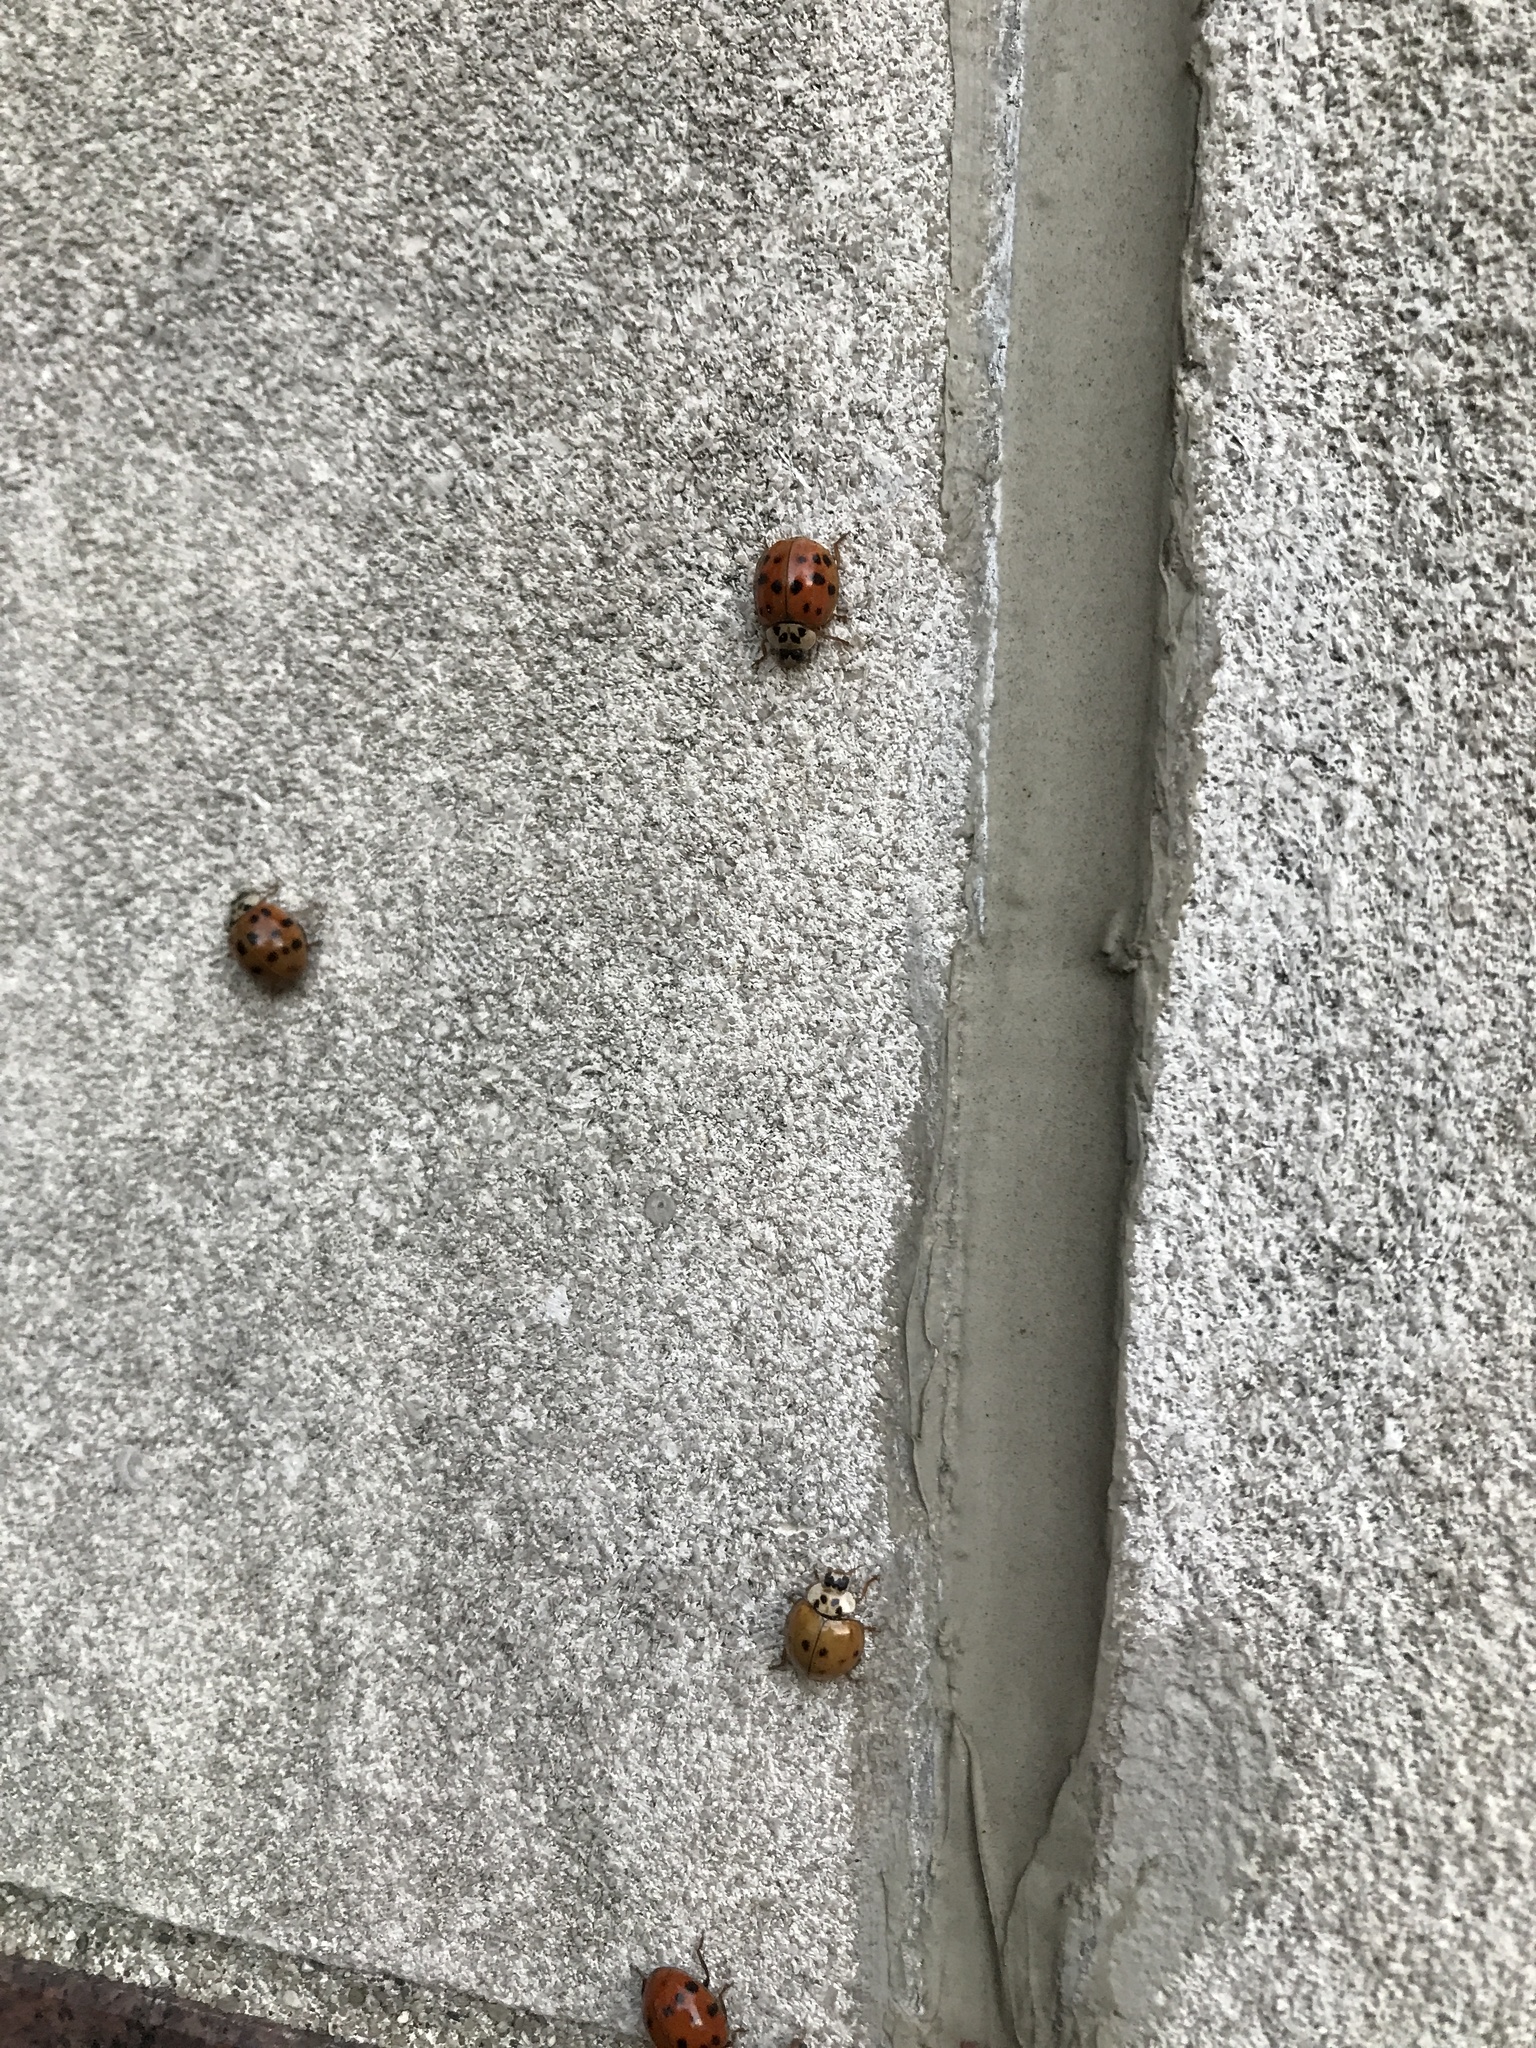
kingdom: Animalia
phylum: Arthropoda
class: Insecta
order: Coleoptera
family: Coccinellidae
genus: Harmonia
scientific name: Harmonia axyridis
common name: Harlequin ladybird
